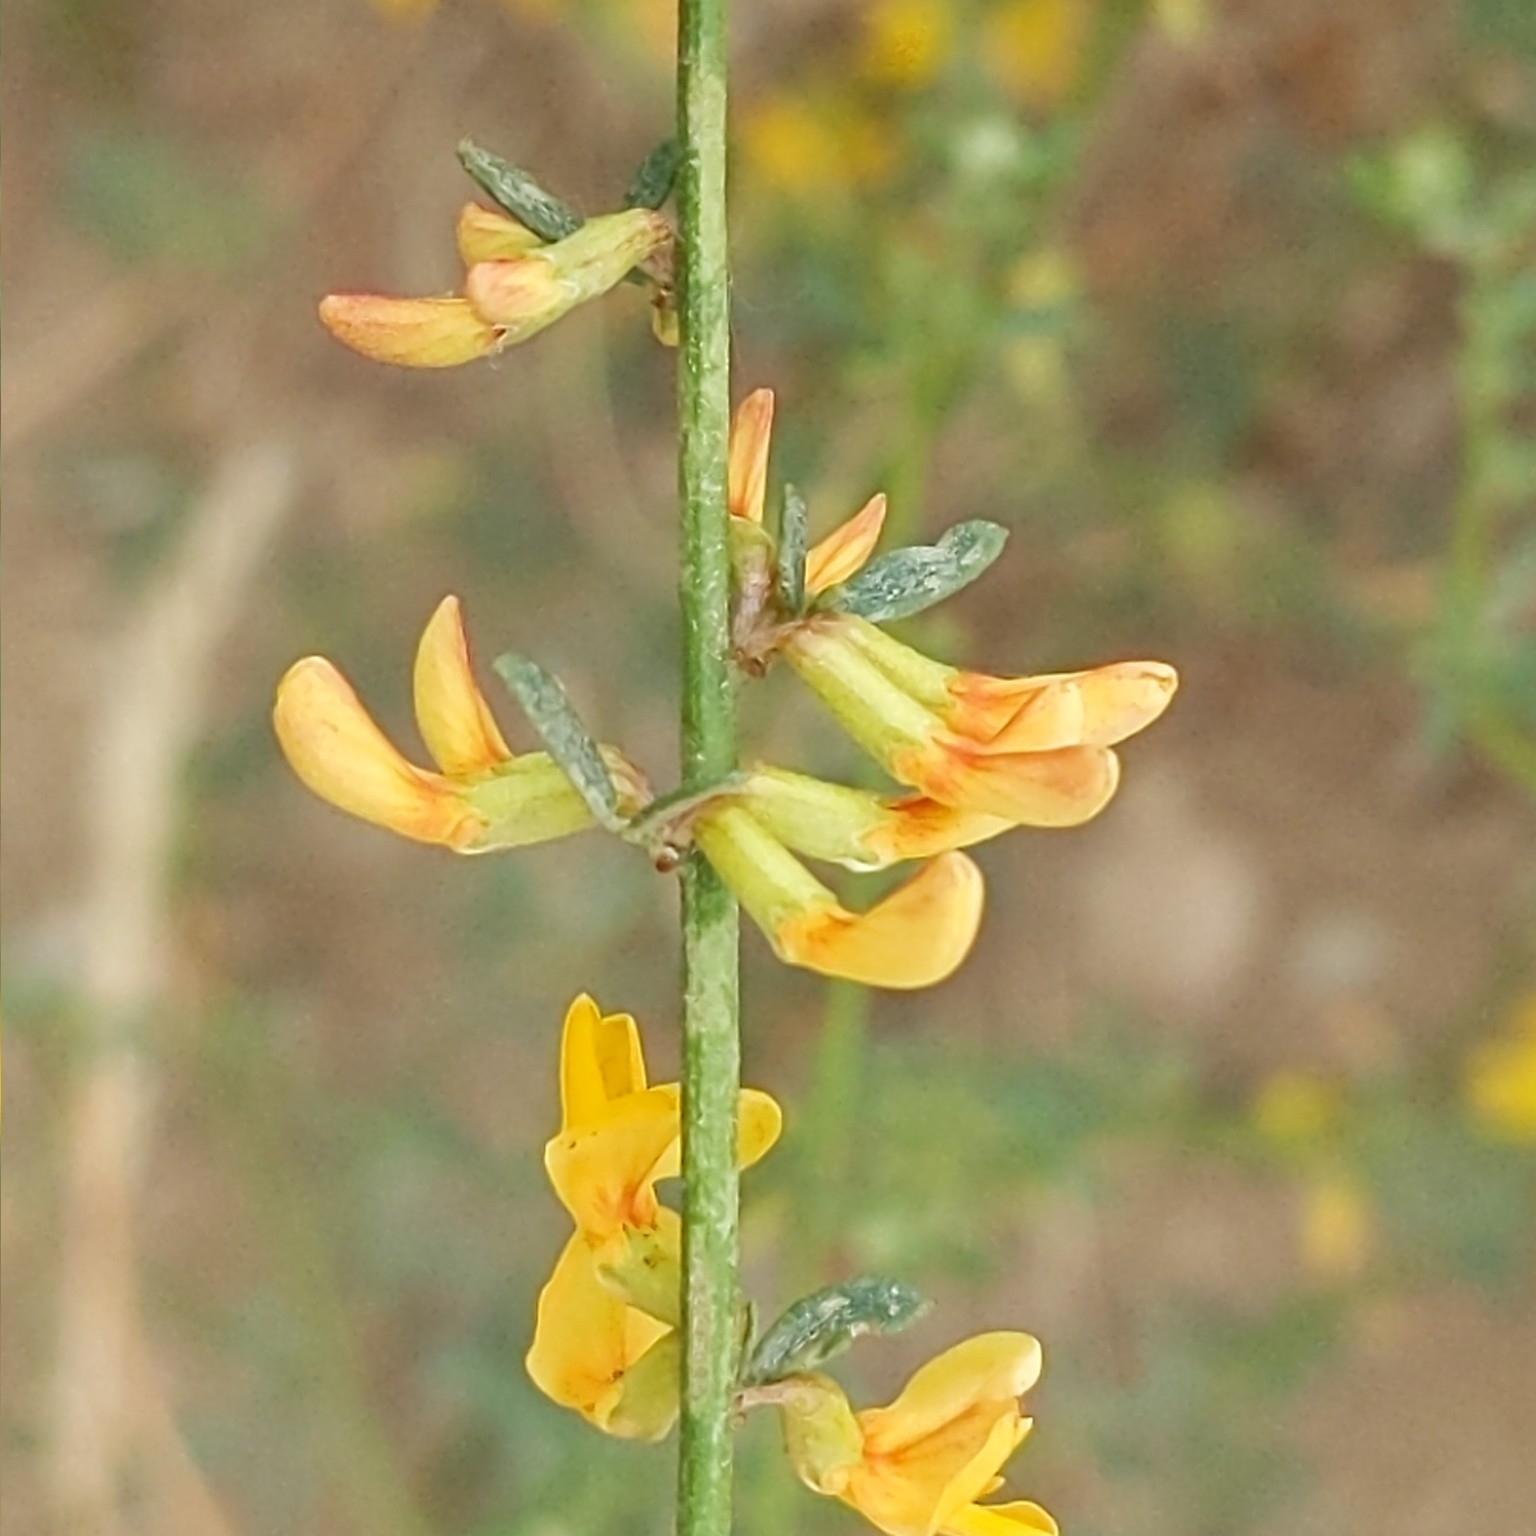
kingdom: Plantae
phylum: Tracheophyta
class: Magnoliopsida
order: Fabales
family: Fabaceae
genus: Acmispon
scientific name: Acmispon glaber
